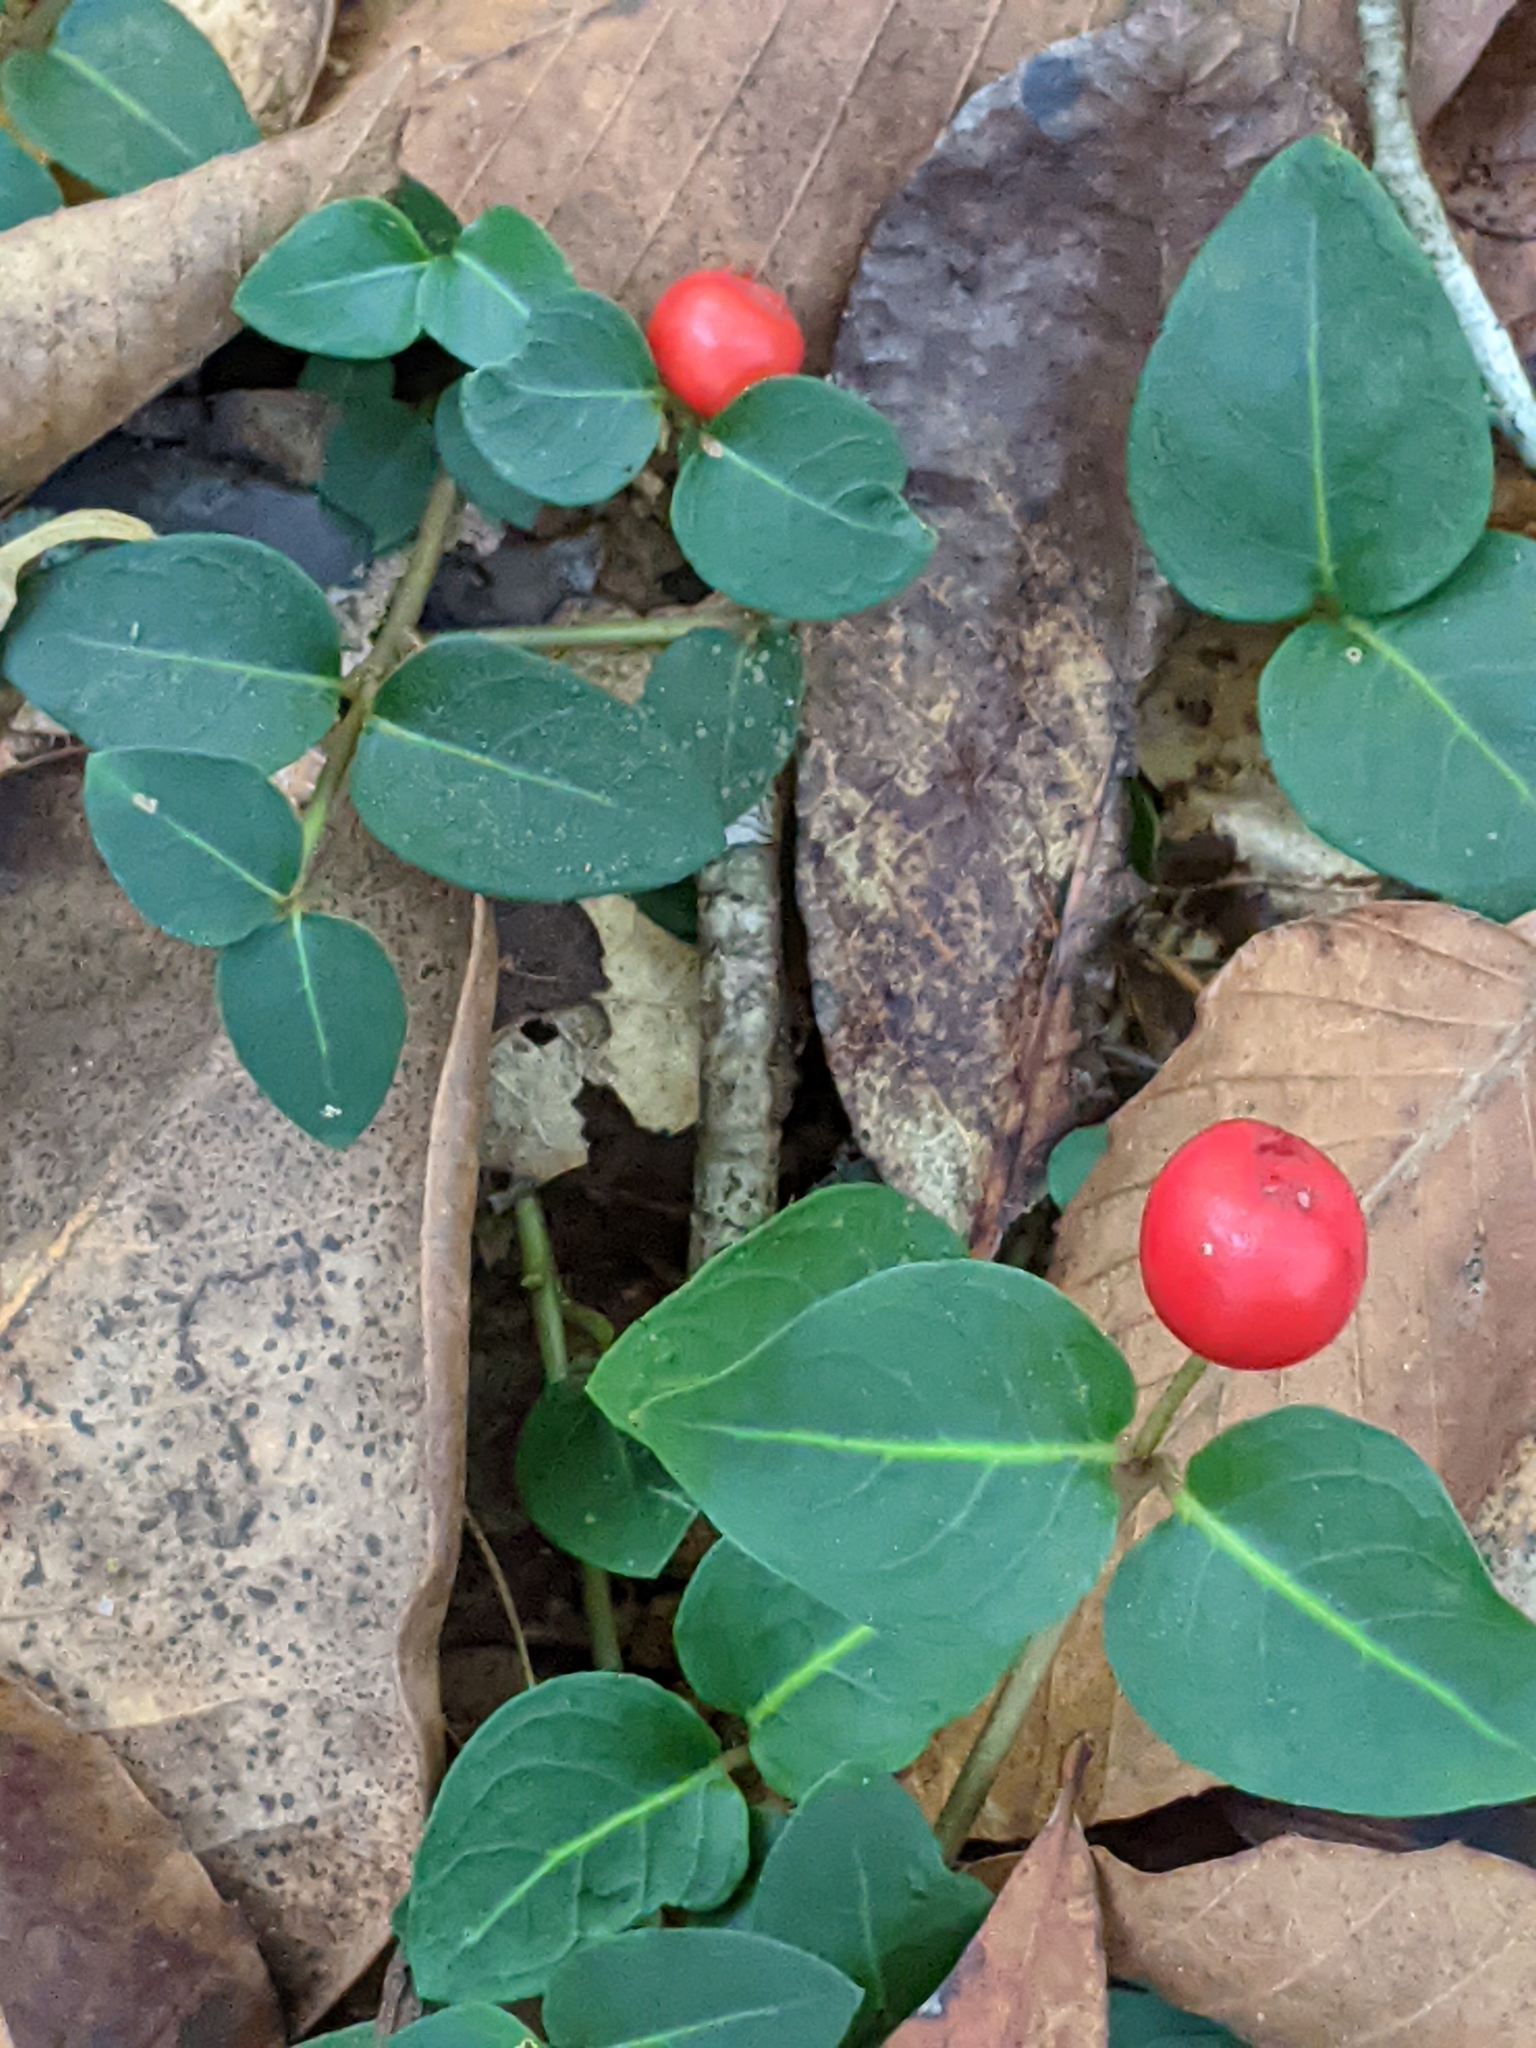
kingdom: Plantae
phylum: Tracheophyta
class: Magnoliopsida
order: Gentianales
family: Rubiaceae
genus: Mitchella
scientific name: Mitchella repens
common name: Partridge-berry
